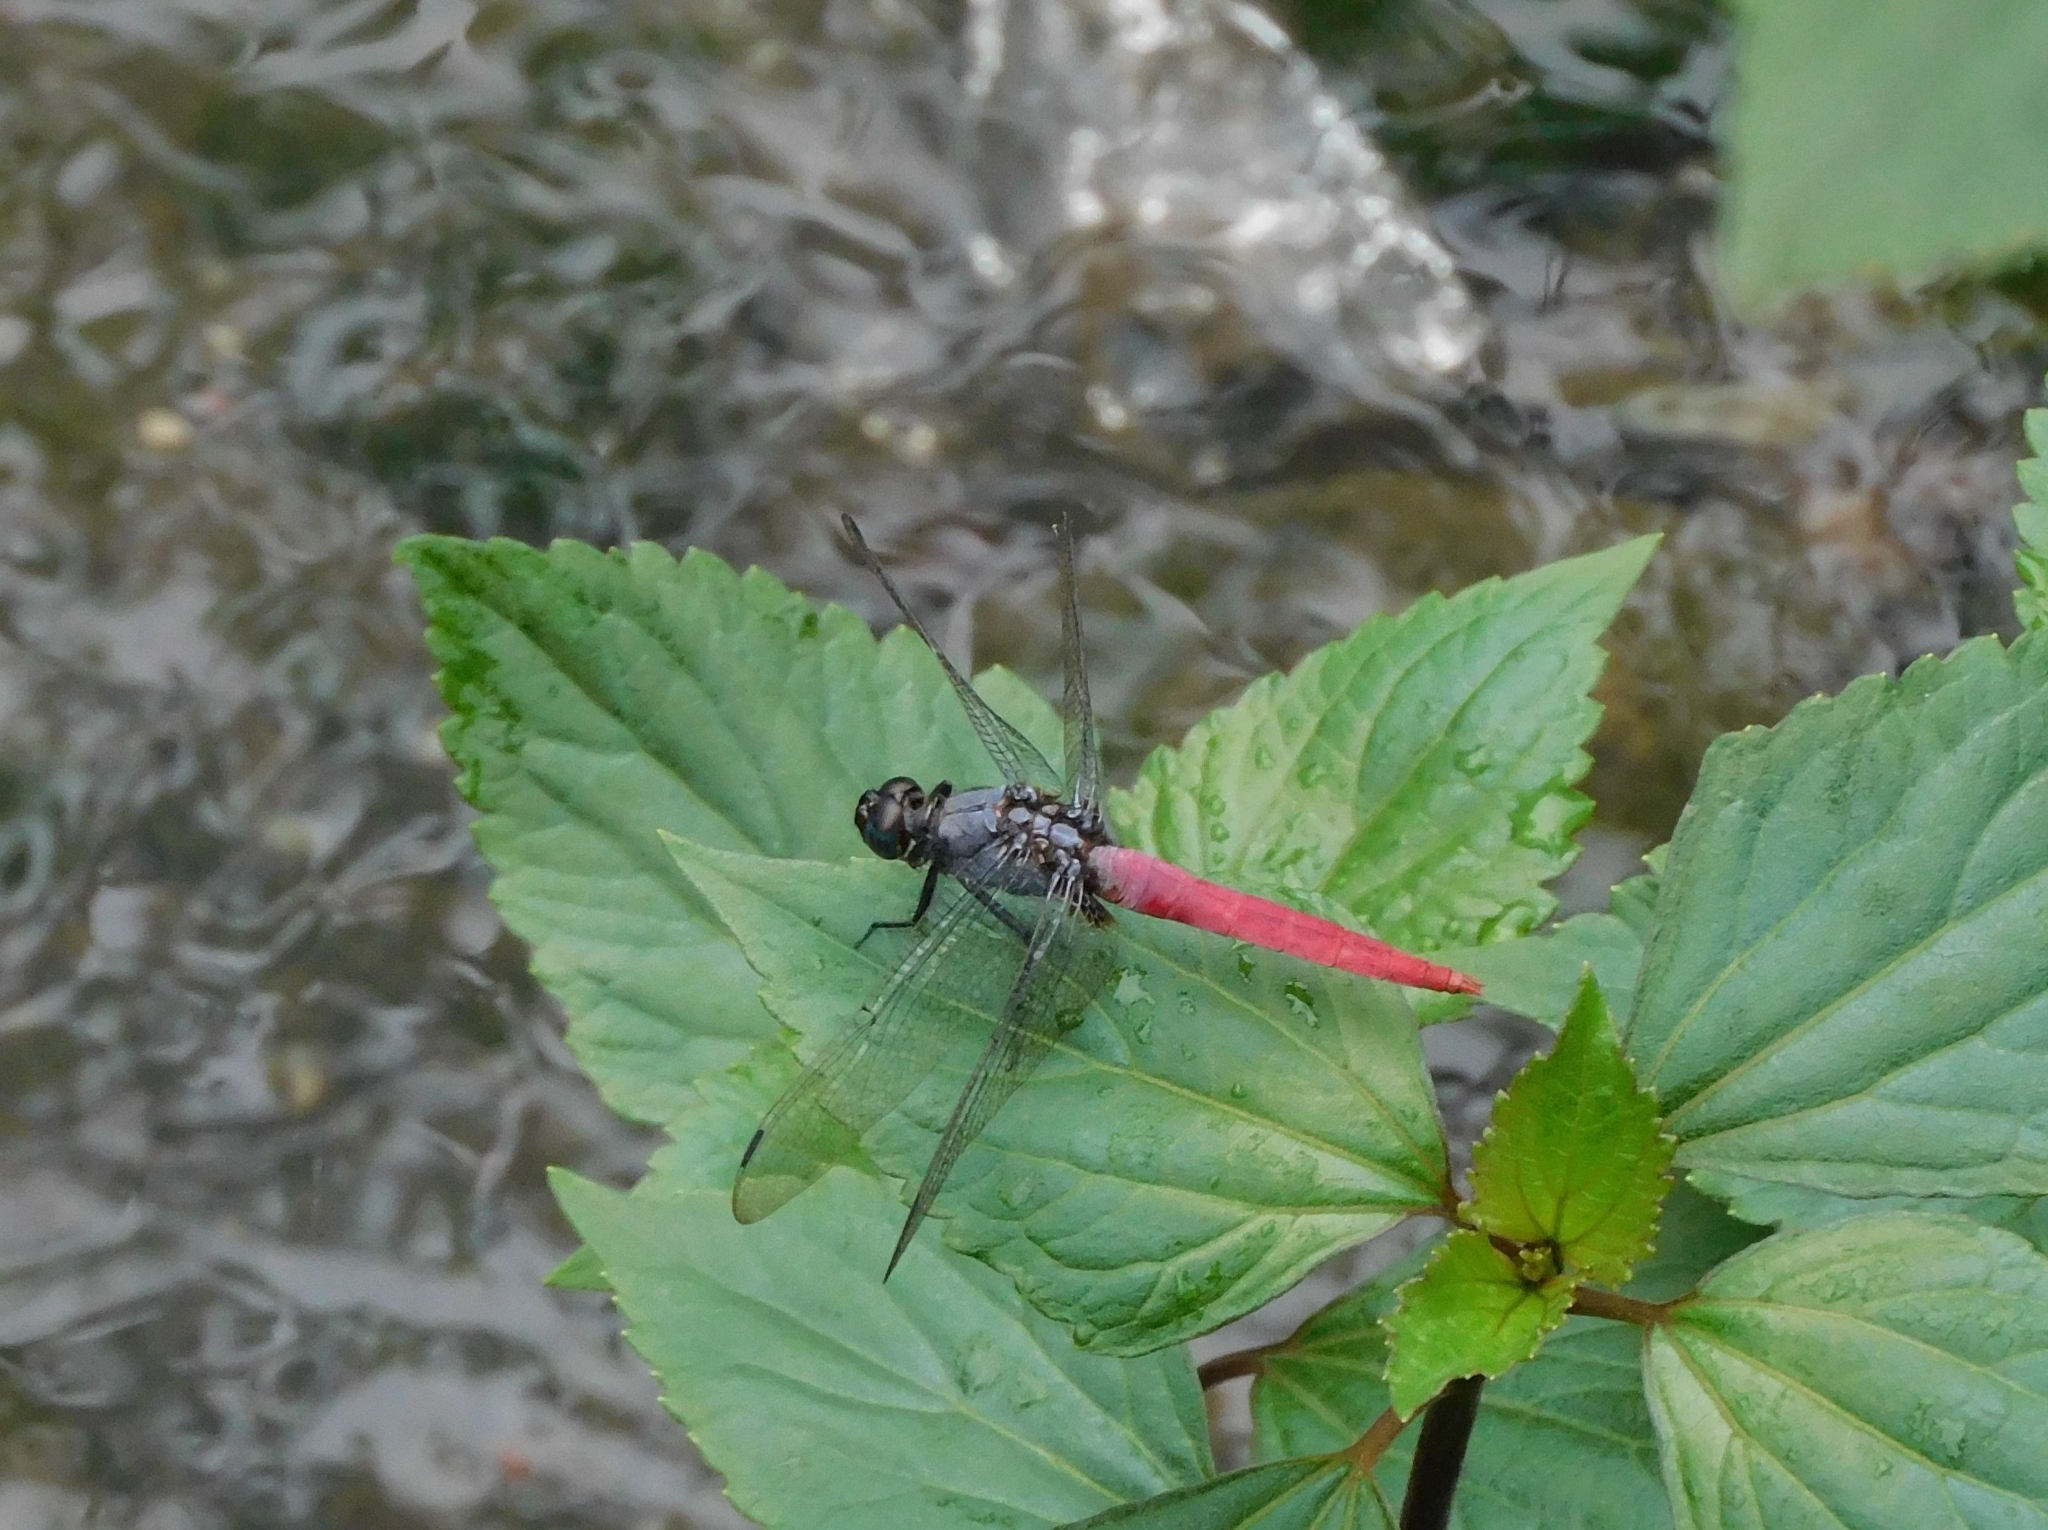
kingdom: Animalia
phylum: Arthropoda
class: Insecta
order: Odonata
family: Libellulidae
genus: Orthetrum
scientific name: Orthetrum pruinosum
